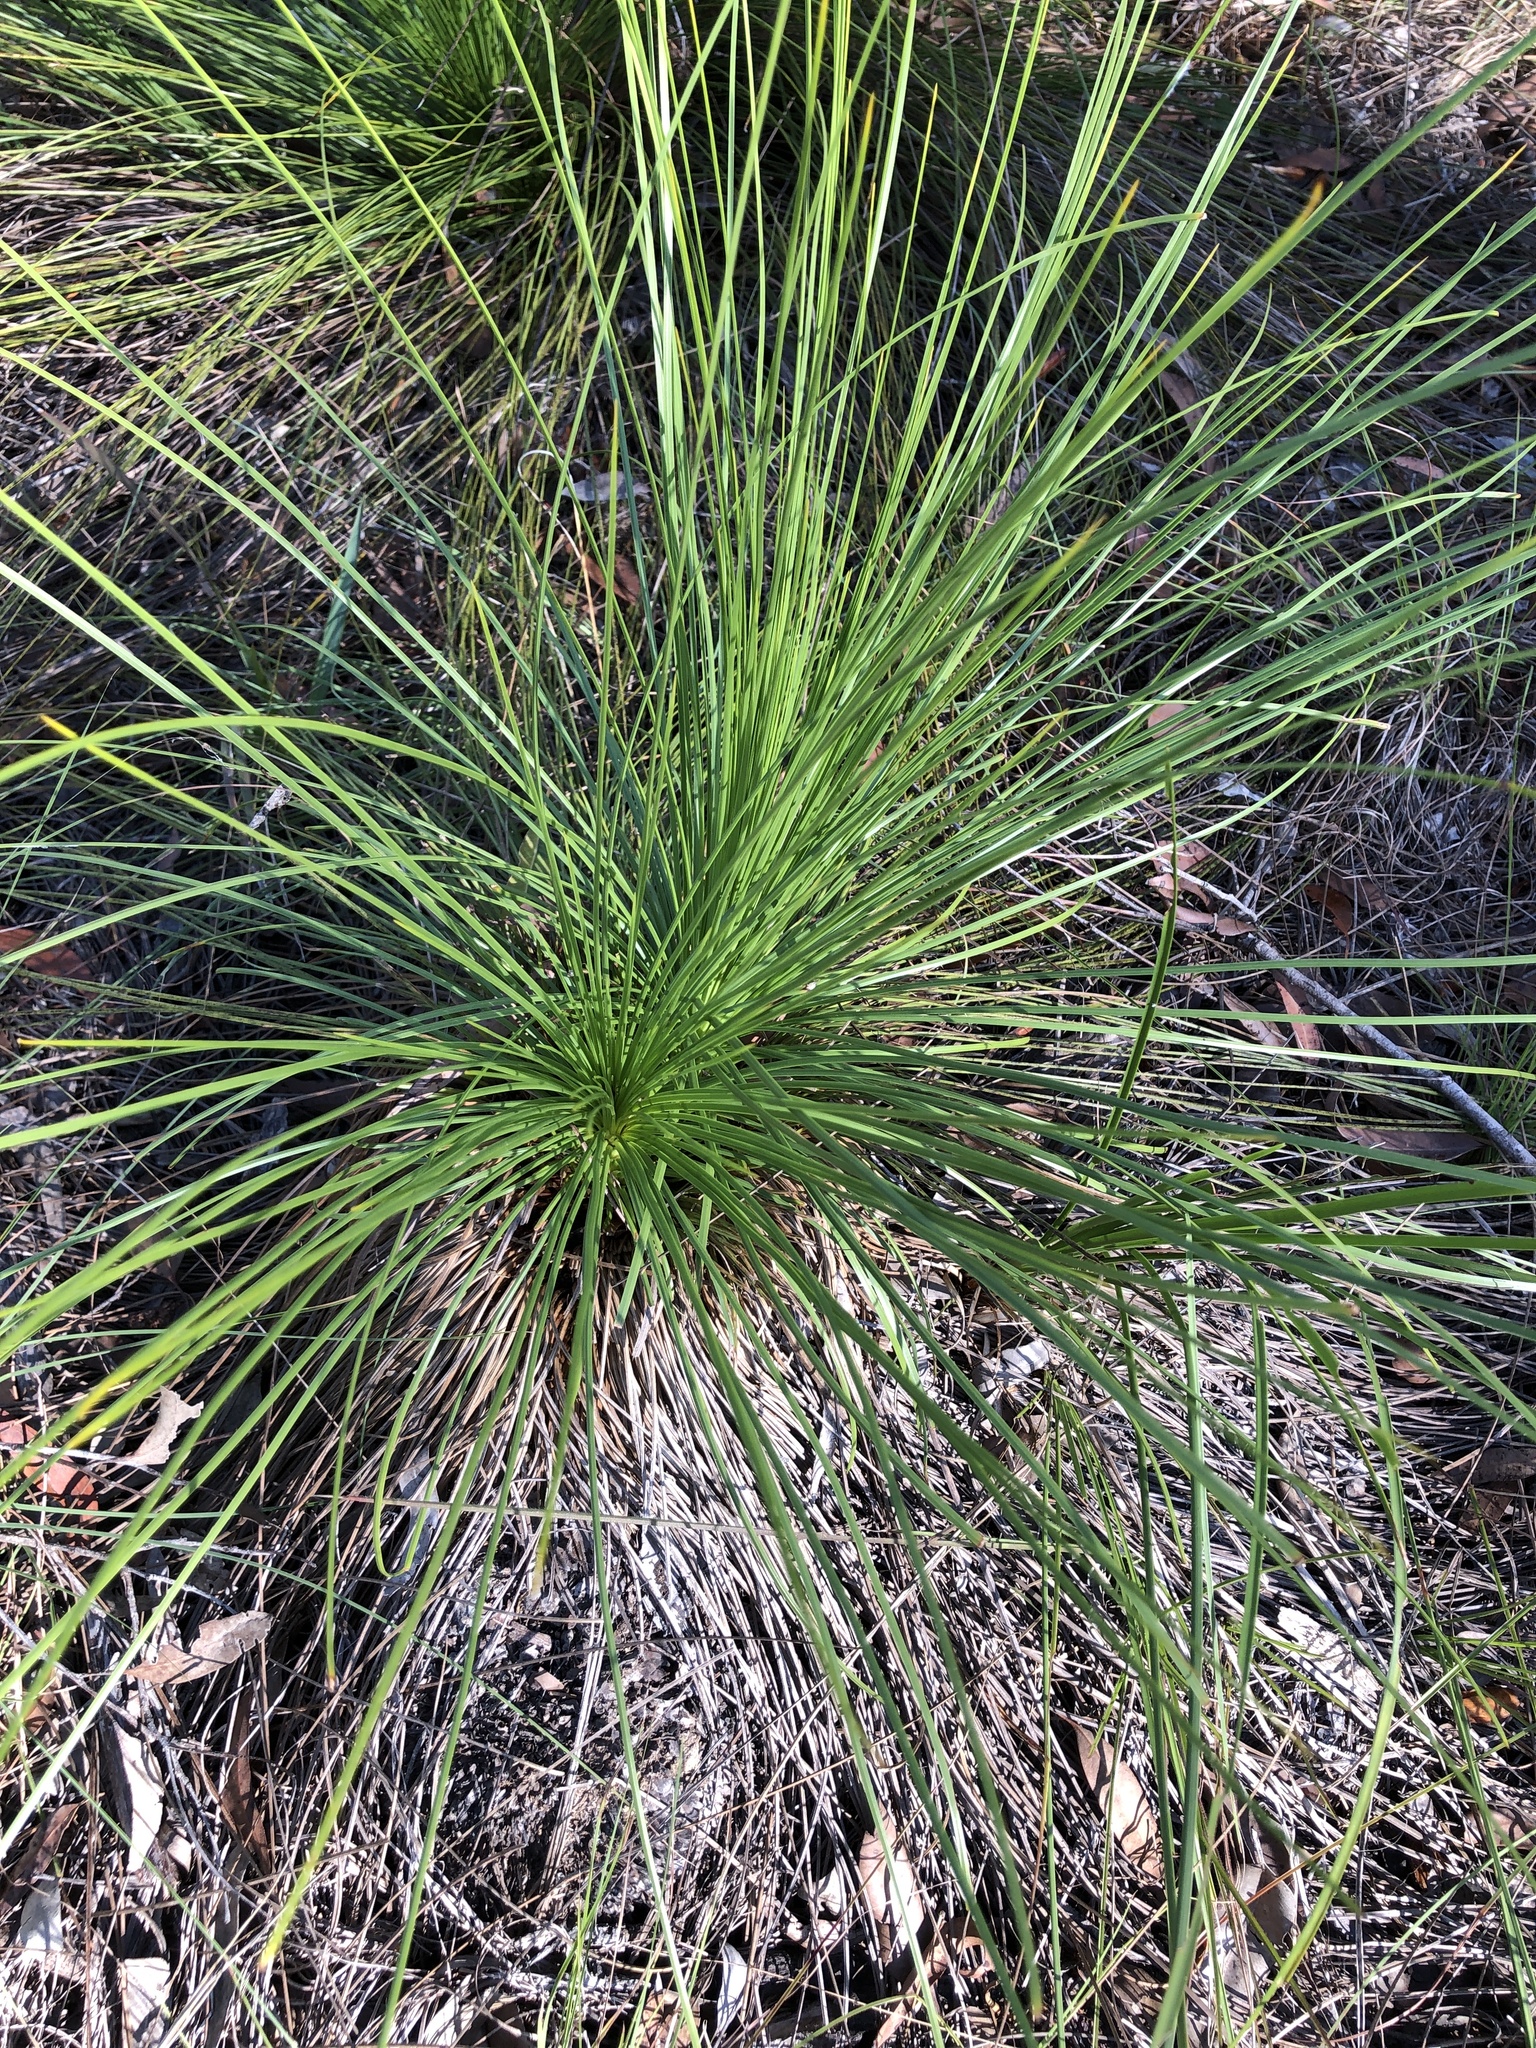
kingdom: Plantae
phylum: Tracheophyta
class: Liliopsida
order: Asparagales
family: Asphodelaceae
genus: Xanthorrhoea
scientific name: Xanthorrhoea latifolia
